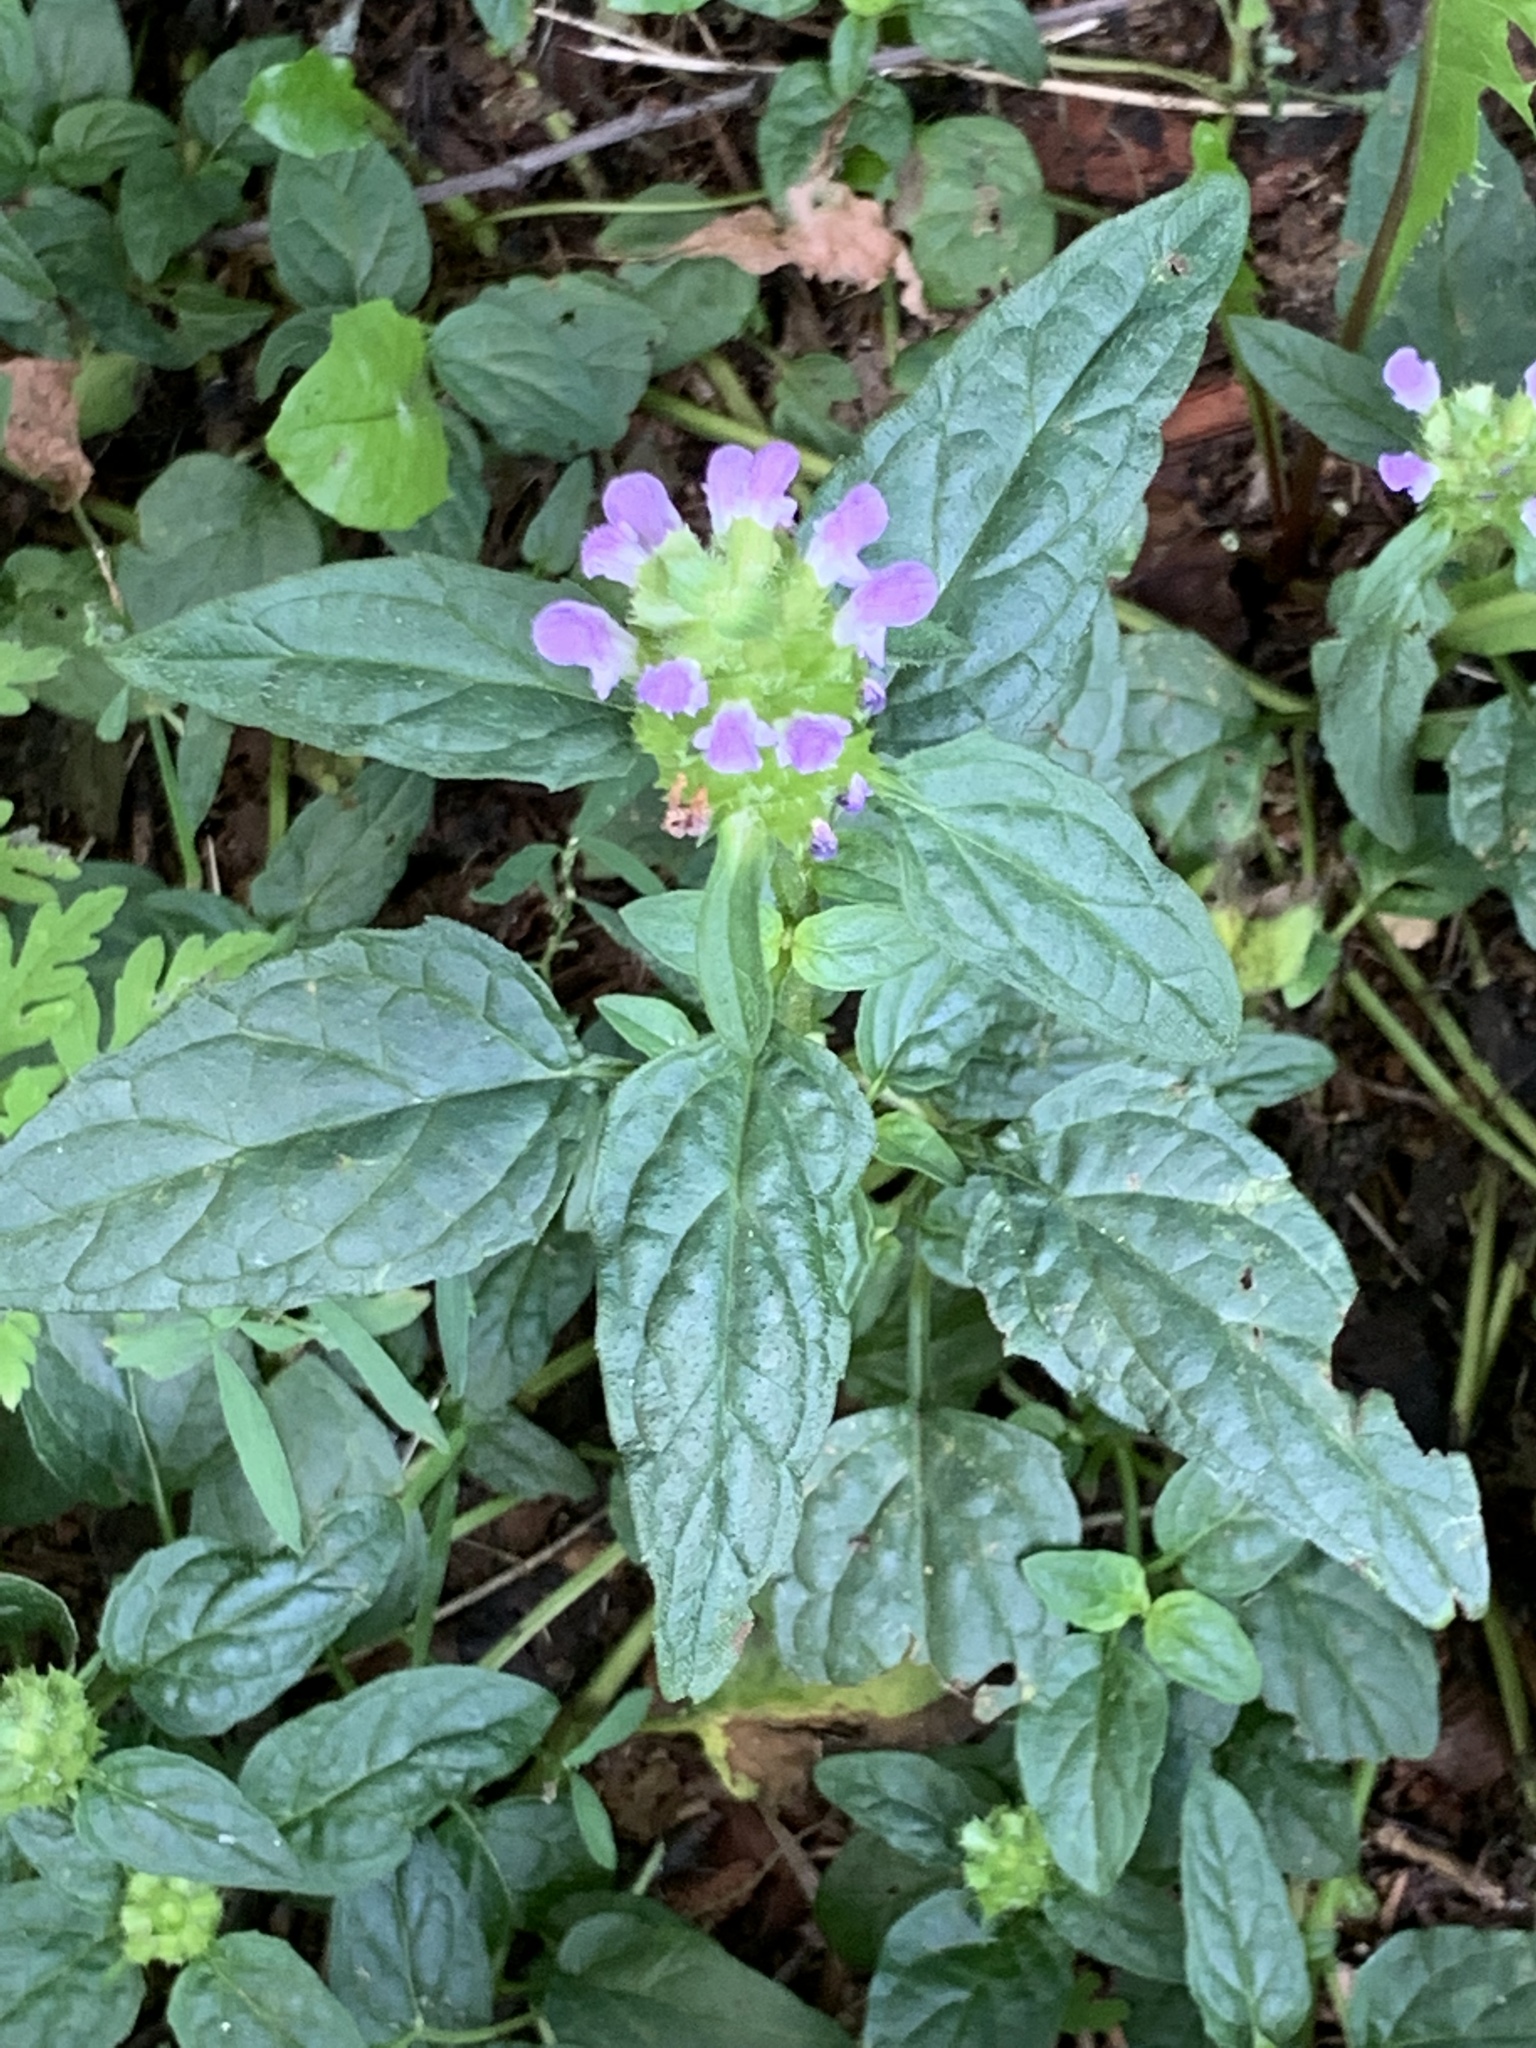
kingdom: Plantae
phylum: Tracheophyta
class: Magnoliopsida
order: Lamiales
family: Lamiaceae
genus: Prunella
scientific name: Prunella vulgaris
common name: Heal-all
